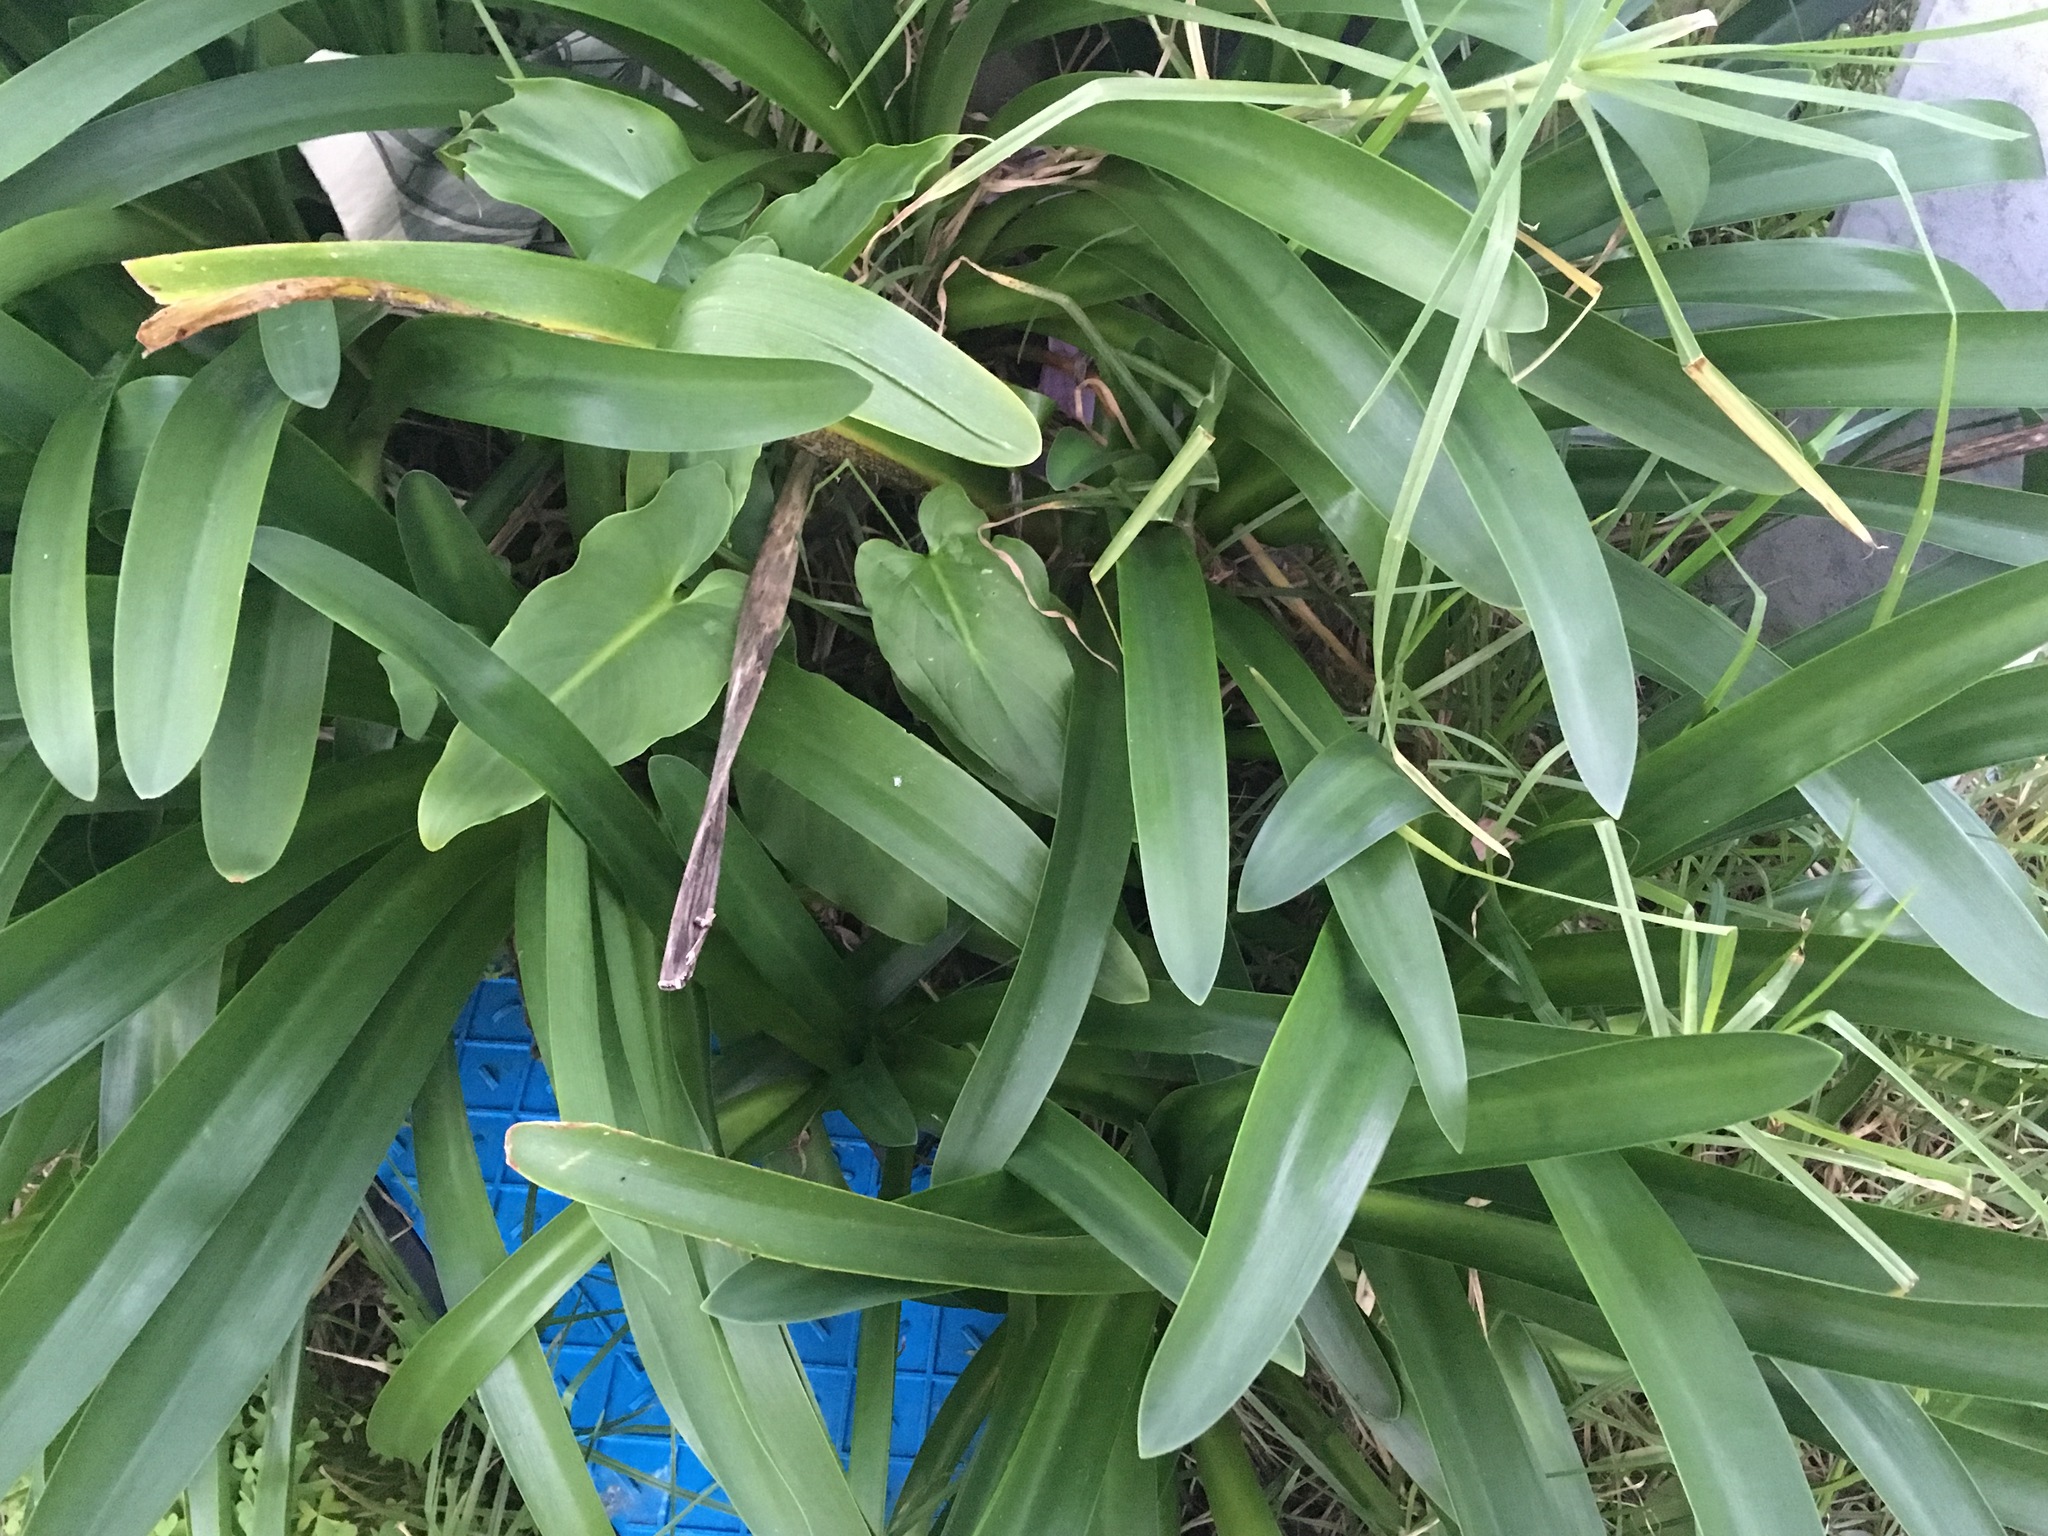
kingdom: Plantae
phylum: Tracheophyta
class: Liliopsida
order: Asparagales
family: Amaryllidaceae
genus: Agapanthus
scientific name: Agapanthus praecox
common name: African-lily
